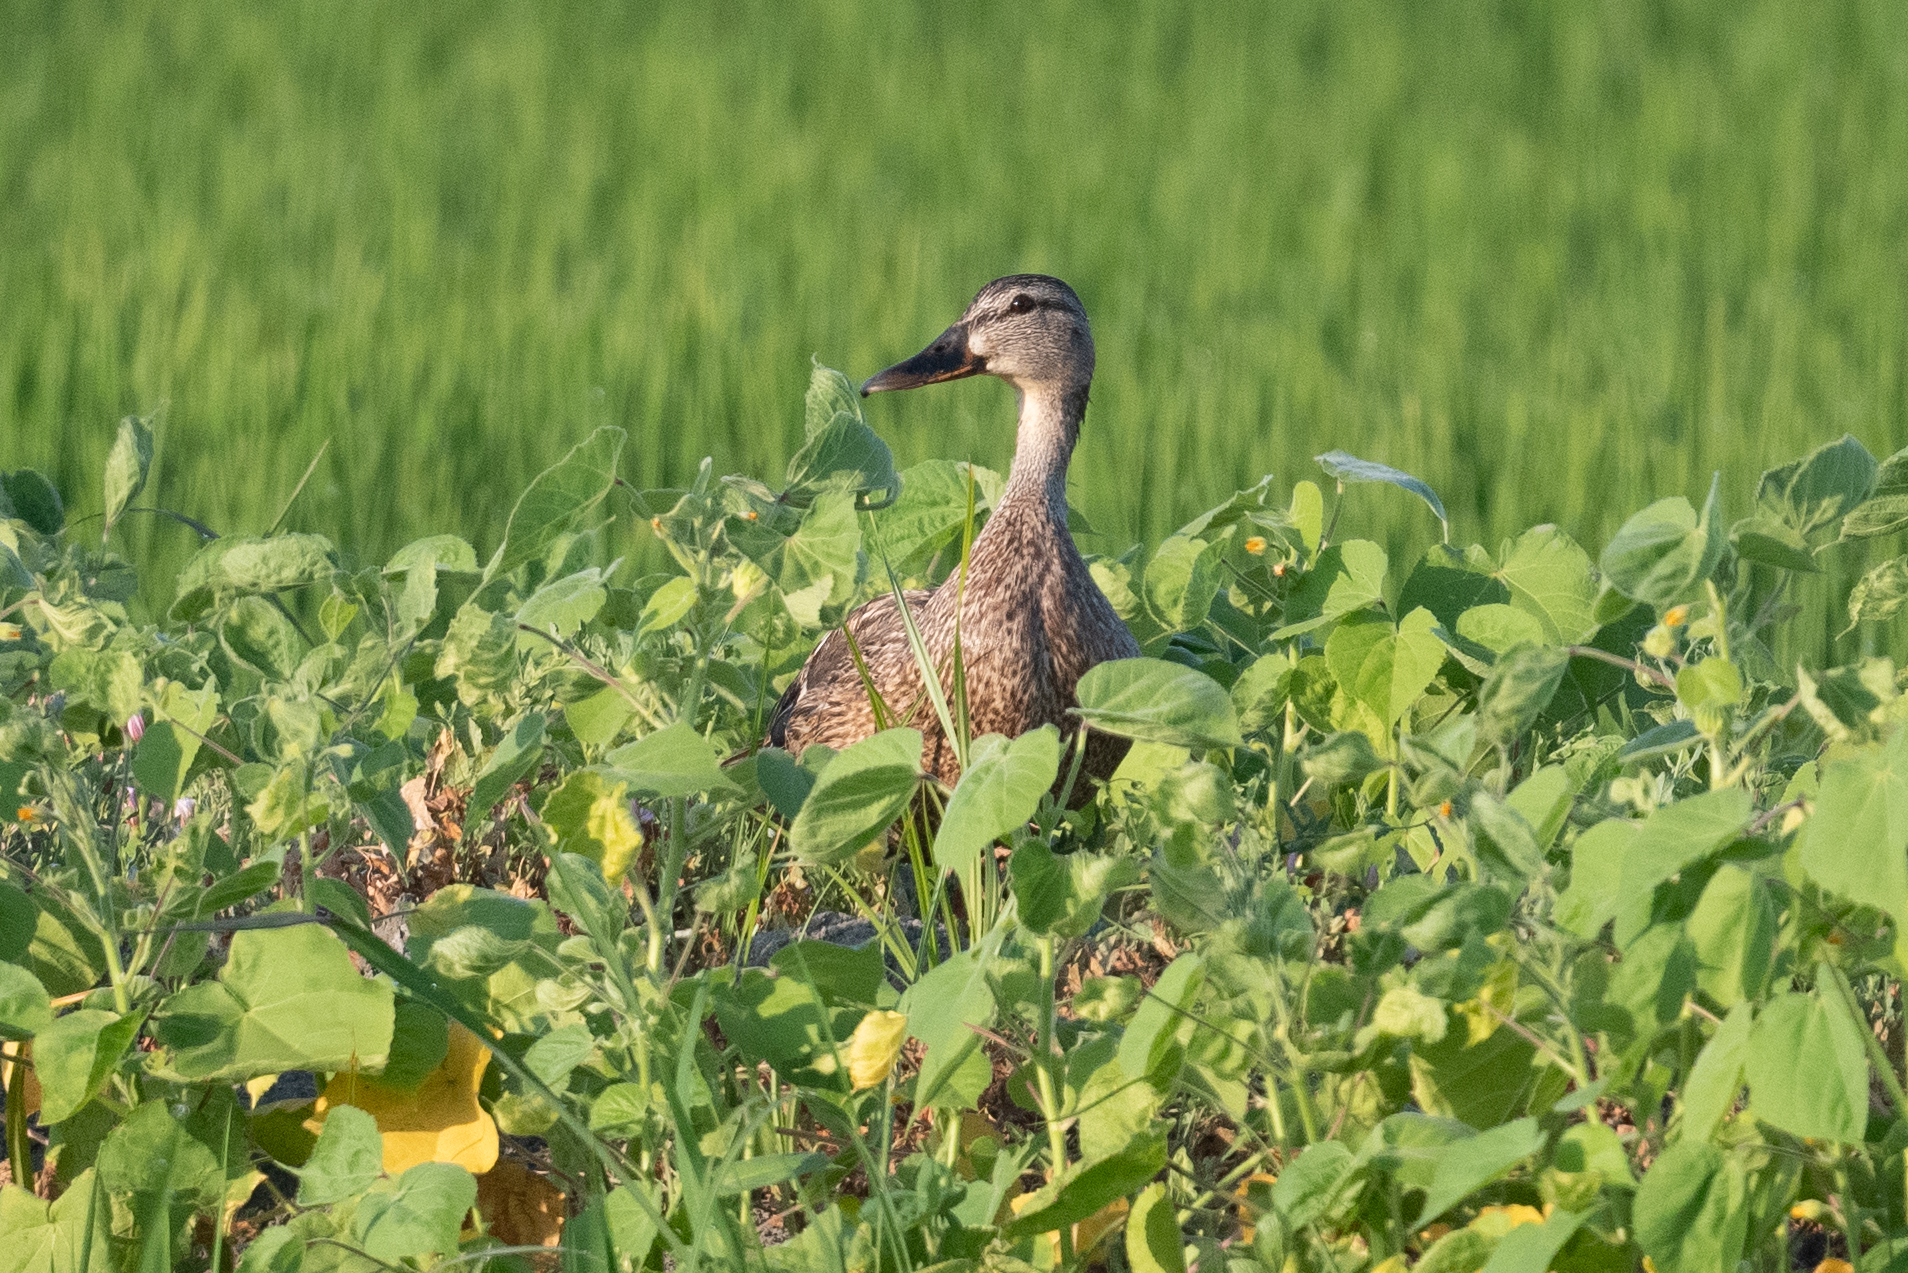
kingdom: Animalia
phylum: Chordata
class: Aves
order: Anseriformes
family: Anatidae
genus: Anas
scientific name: Anas platyrhynchos
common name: Mallard
